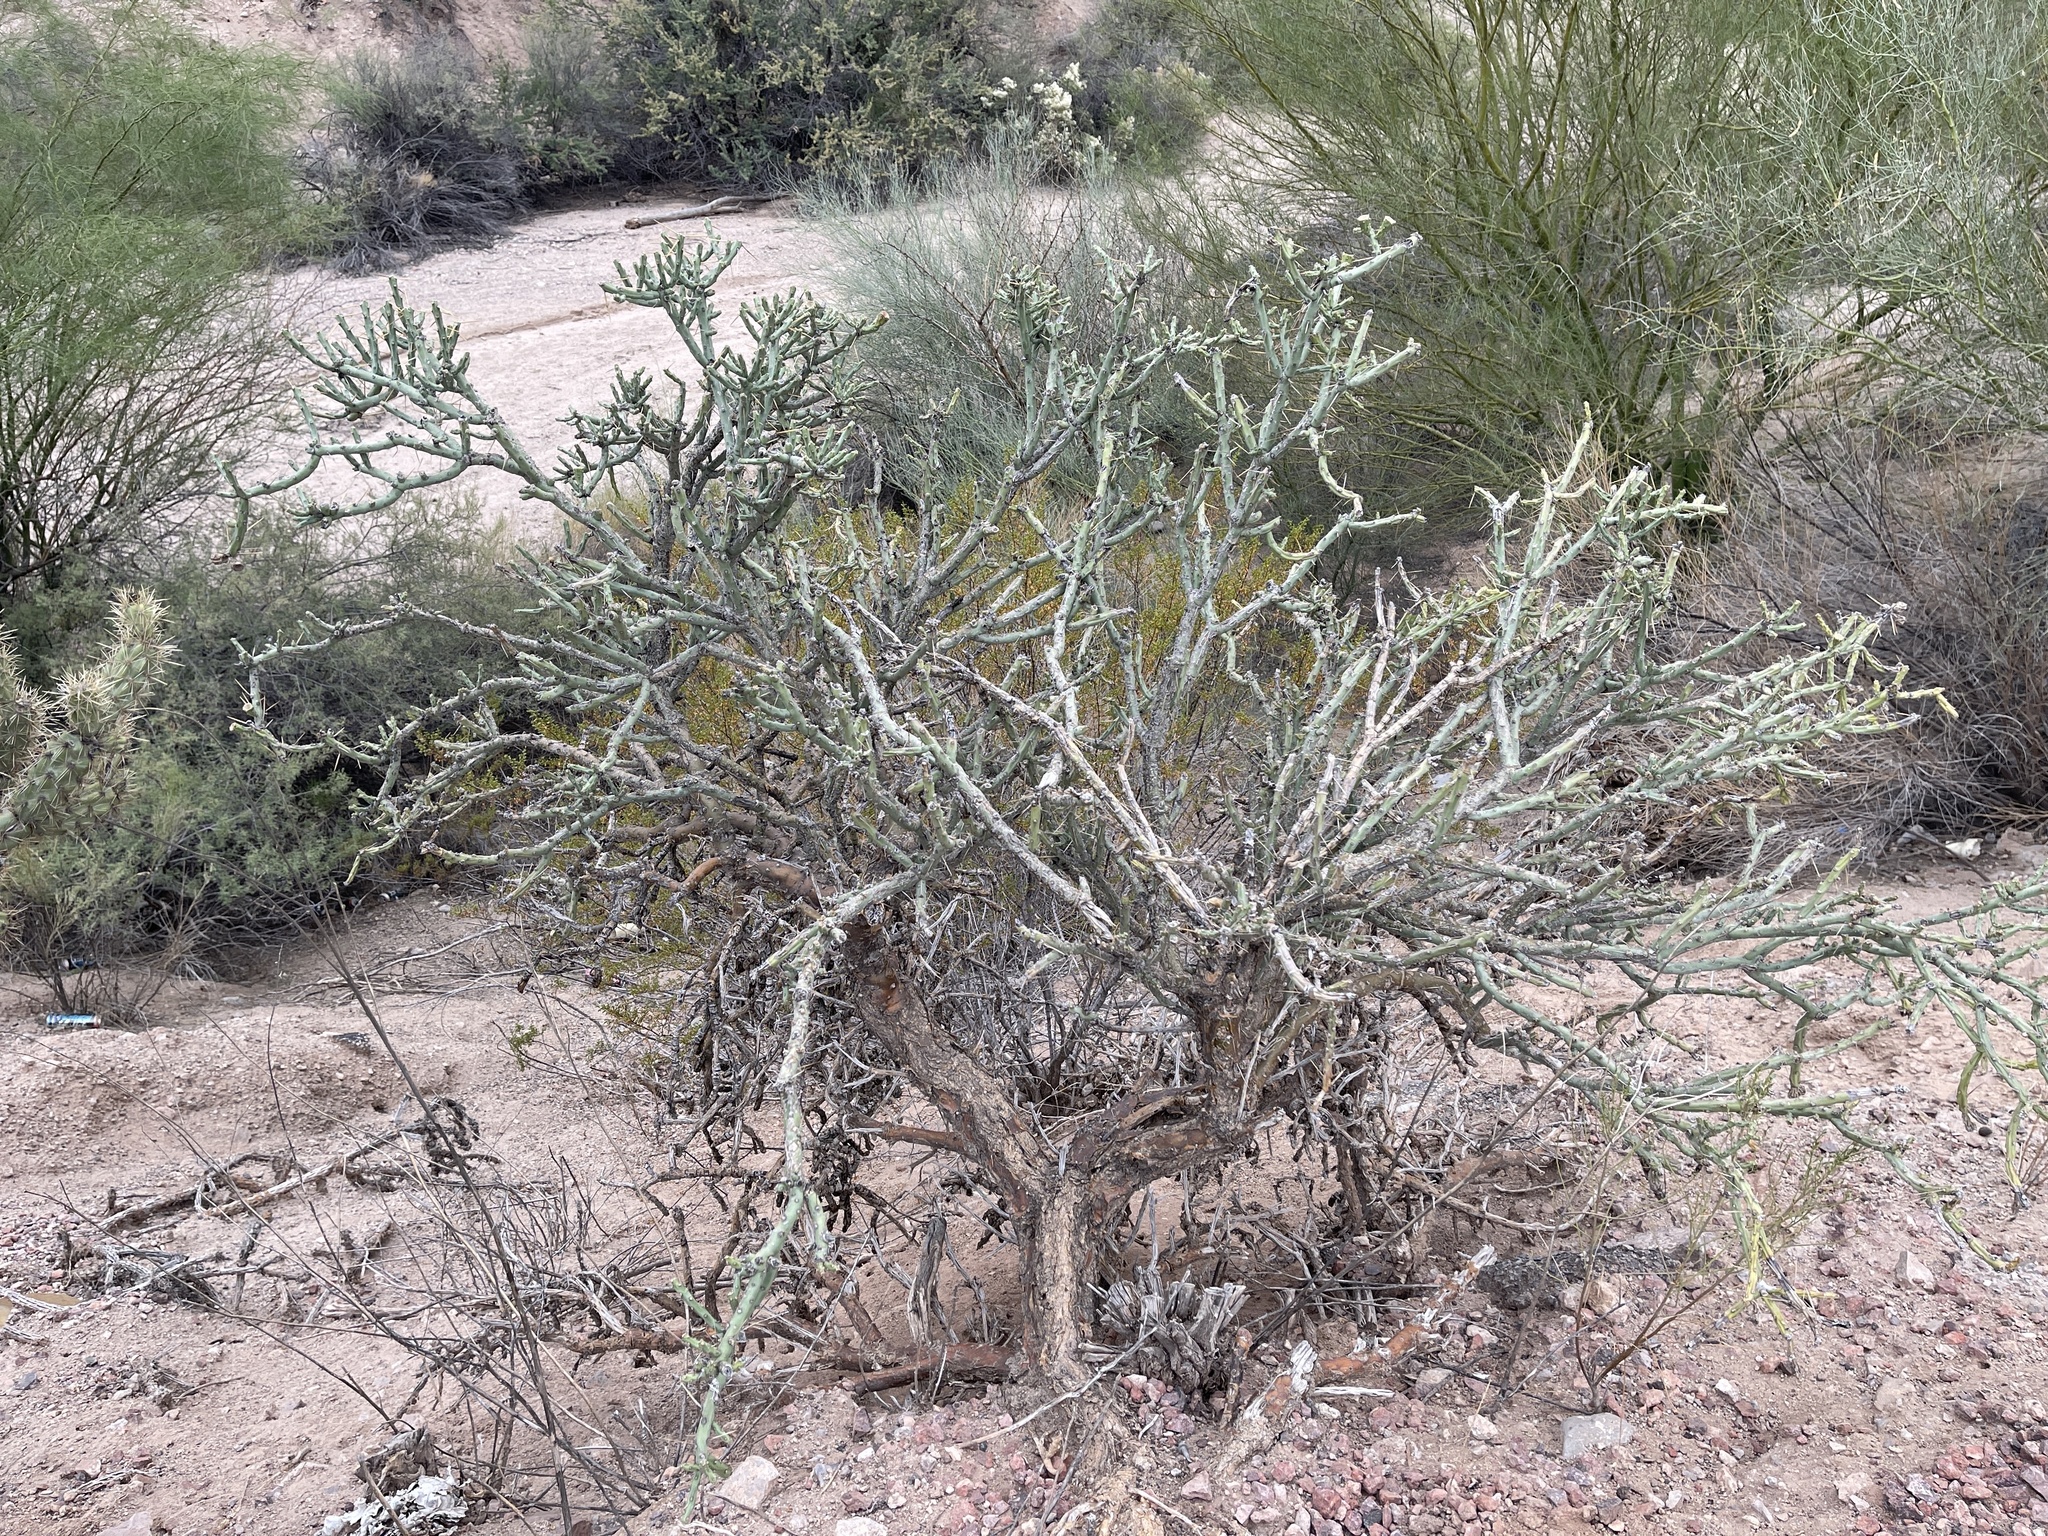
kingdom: Plantae
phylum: Tracheophyta
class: Magnoliopsida
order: Caryophyllales
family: Cactaceae
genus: Cylindropuntia
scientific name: Cylindropuntia arbuscula
